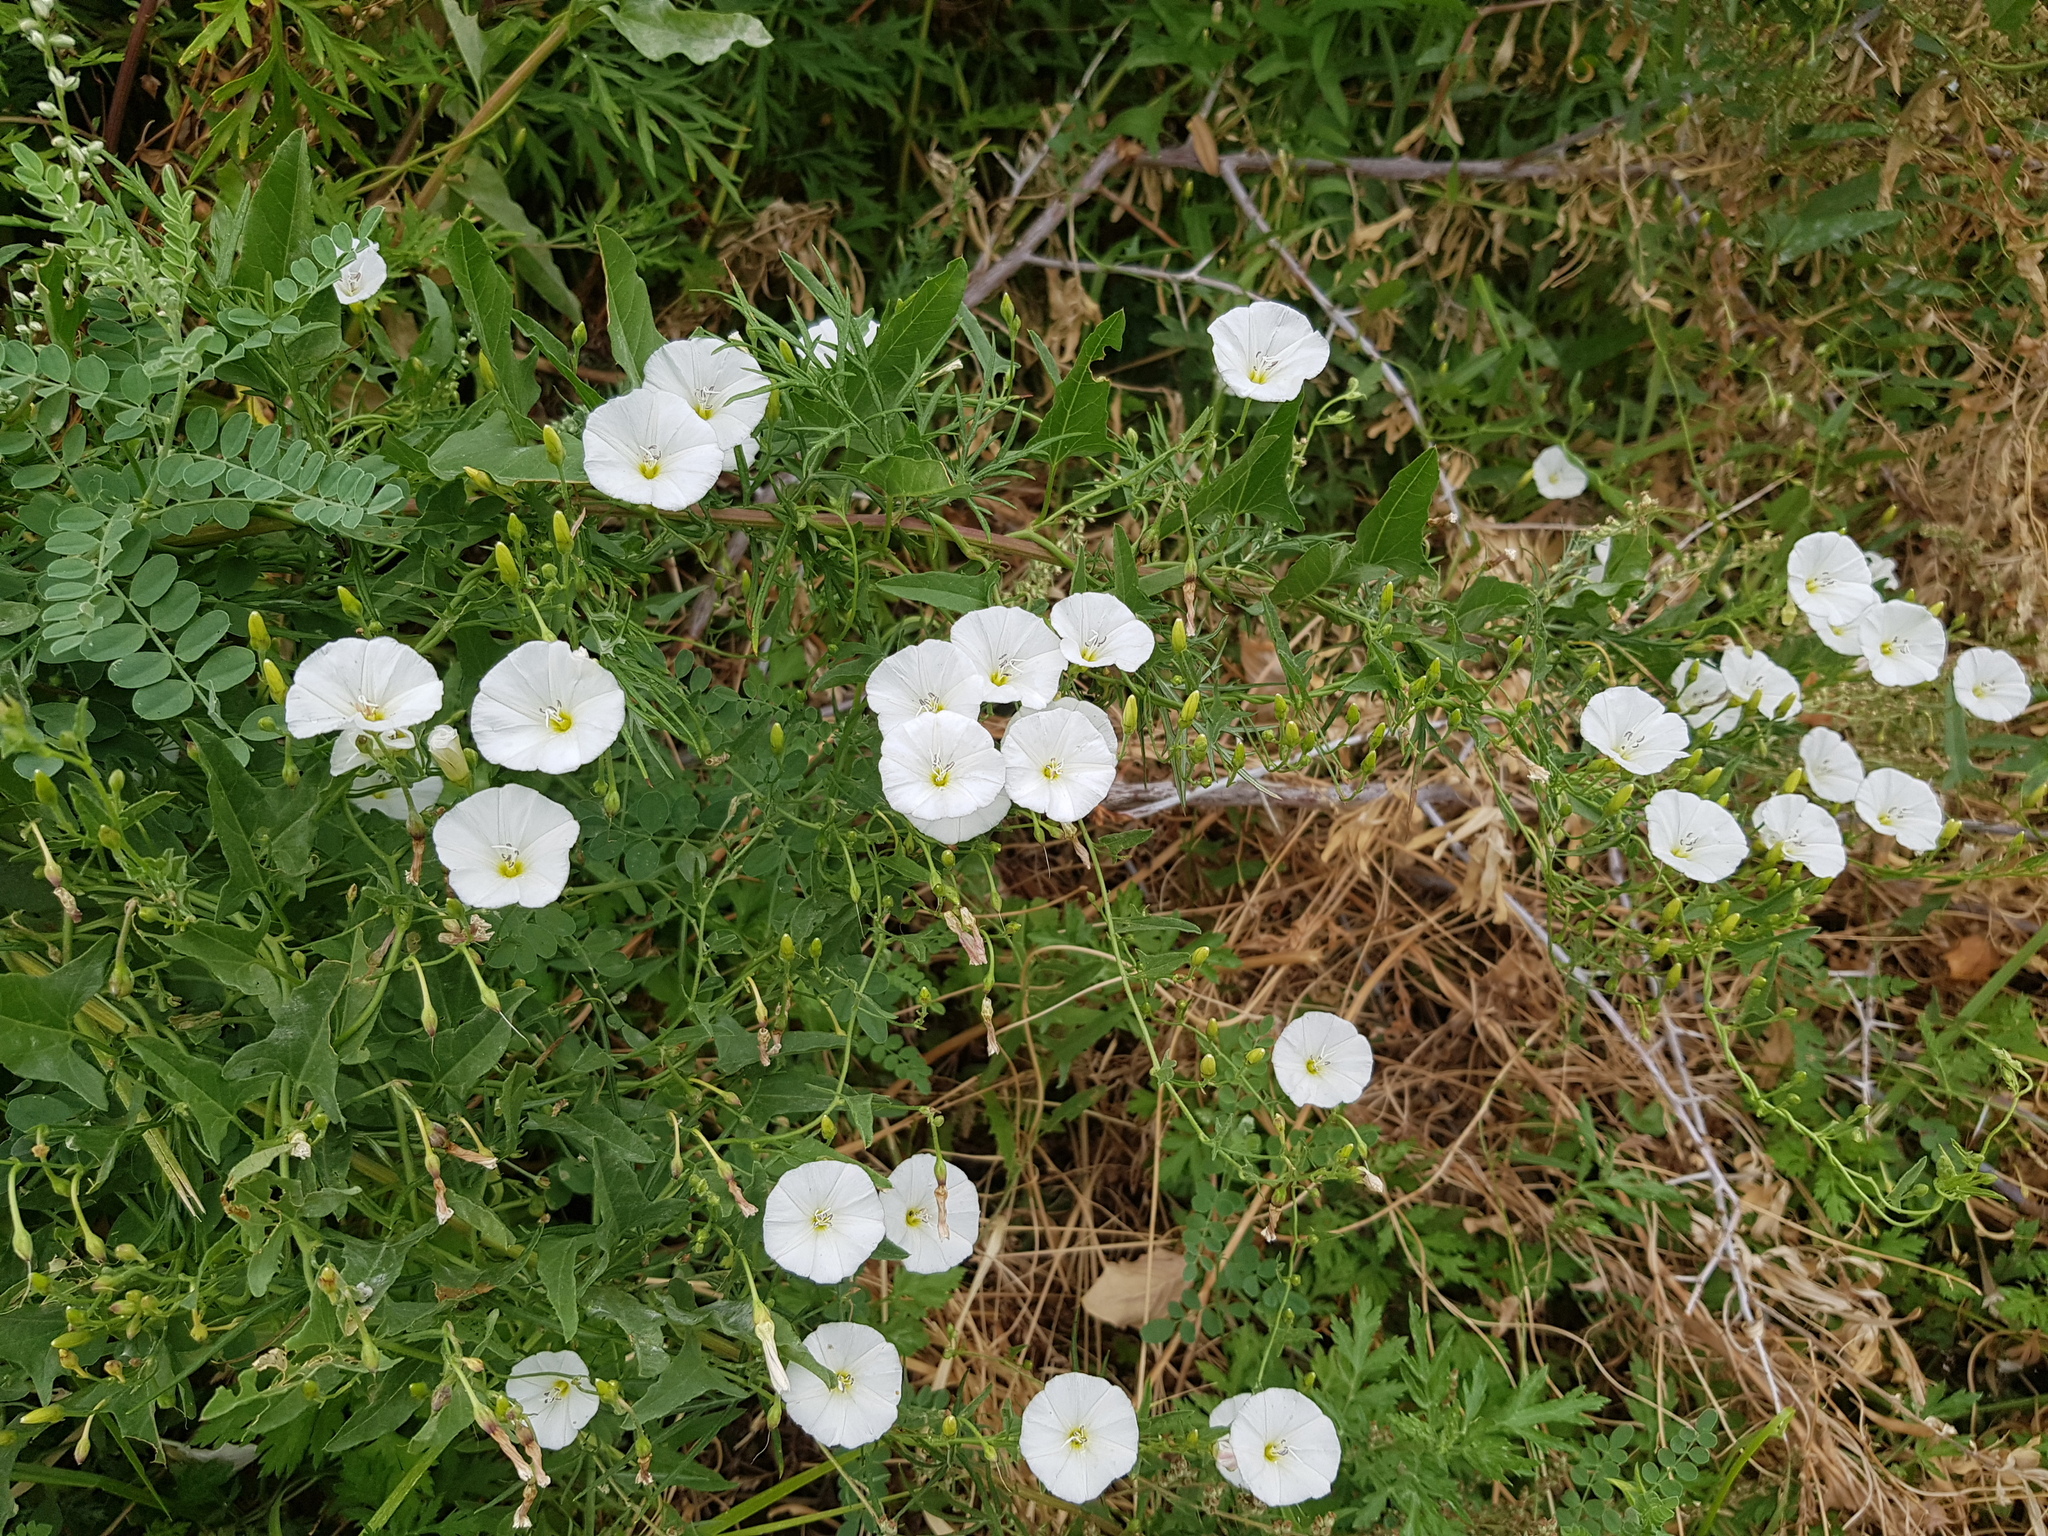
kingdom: Plantae
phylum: Tracheophyta
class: Magnoliopsida
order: Solanales
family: Convolvulaceae
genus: Convolvulus
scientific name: Convolvulus arvensis
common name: Field bindweed
